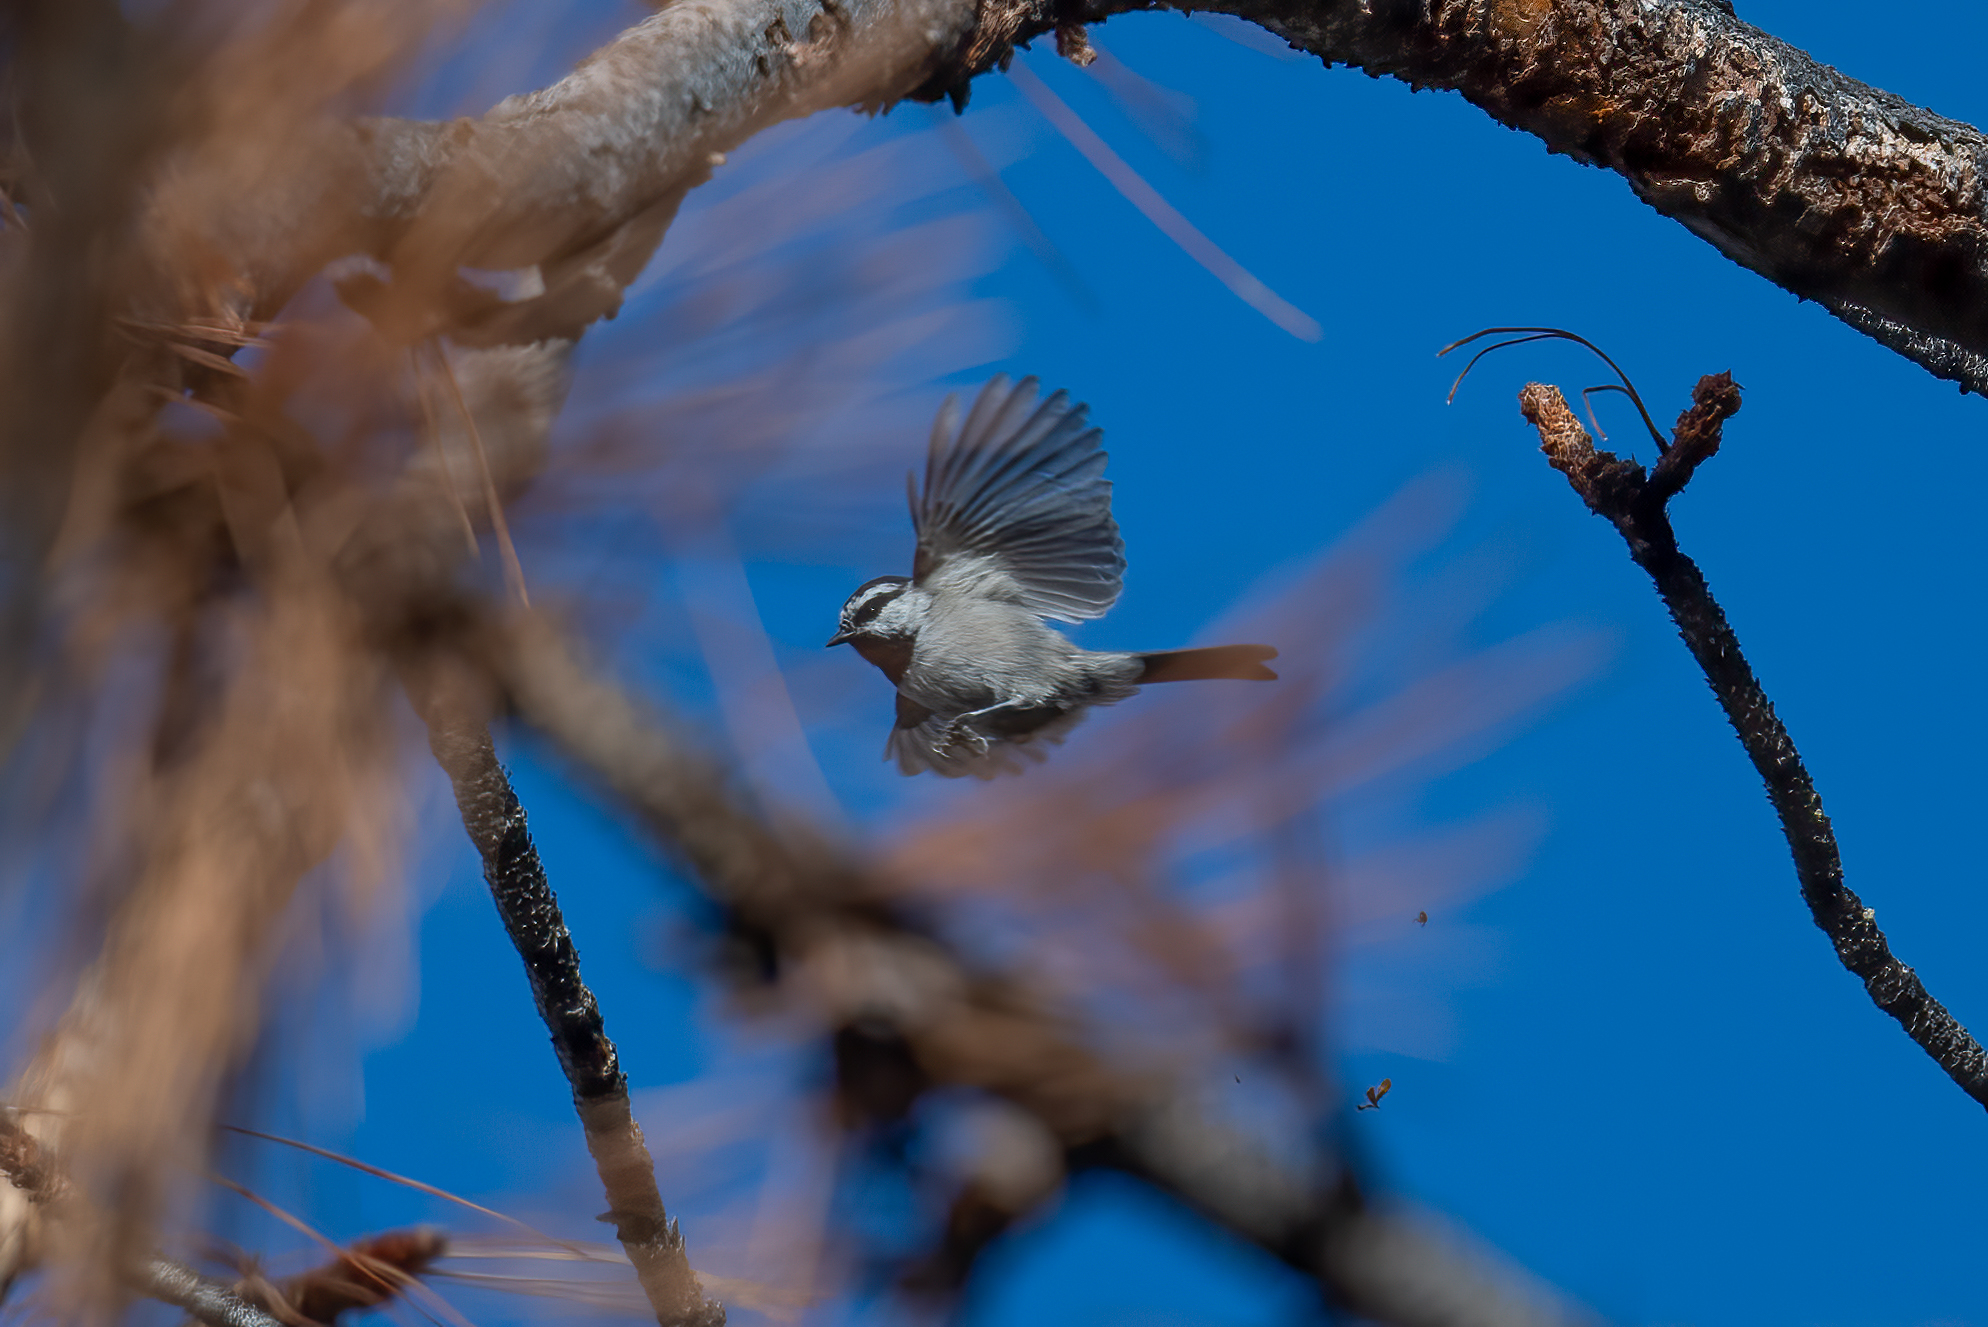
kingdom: Animalia
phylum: Chordata
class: Aves
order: Passeriformes
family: Paridae
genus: Poecile
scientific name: Poecile gambeli
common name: Mountain chickadee
